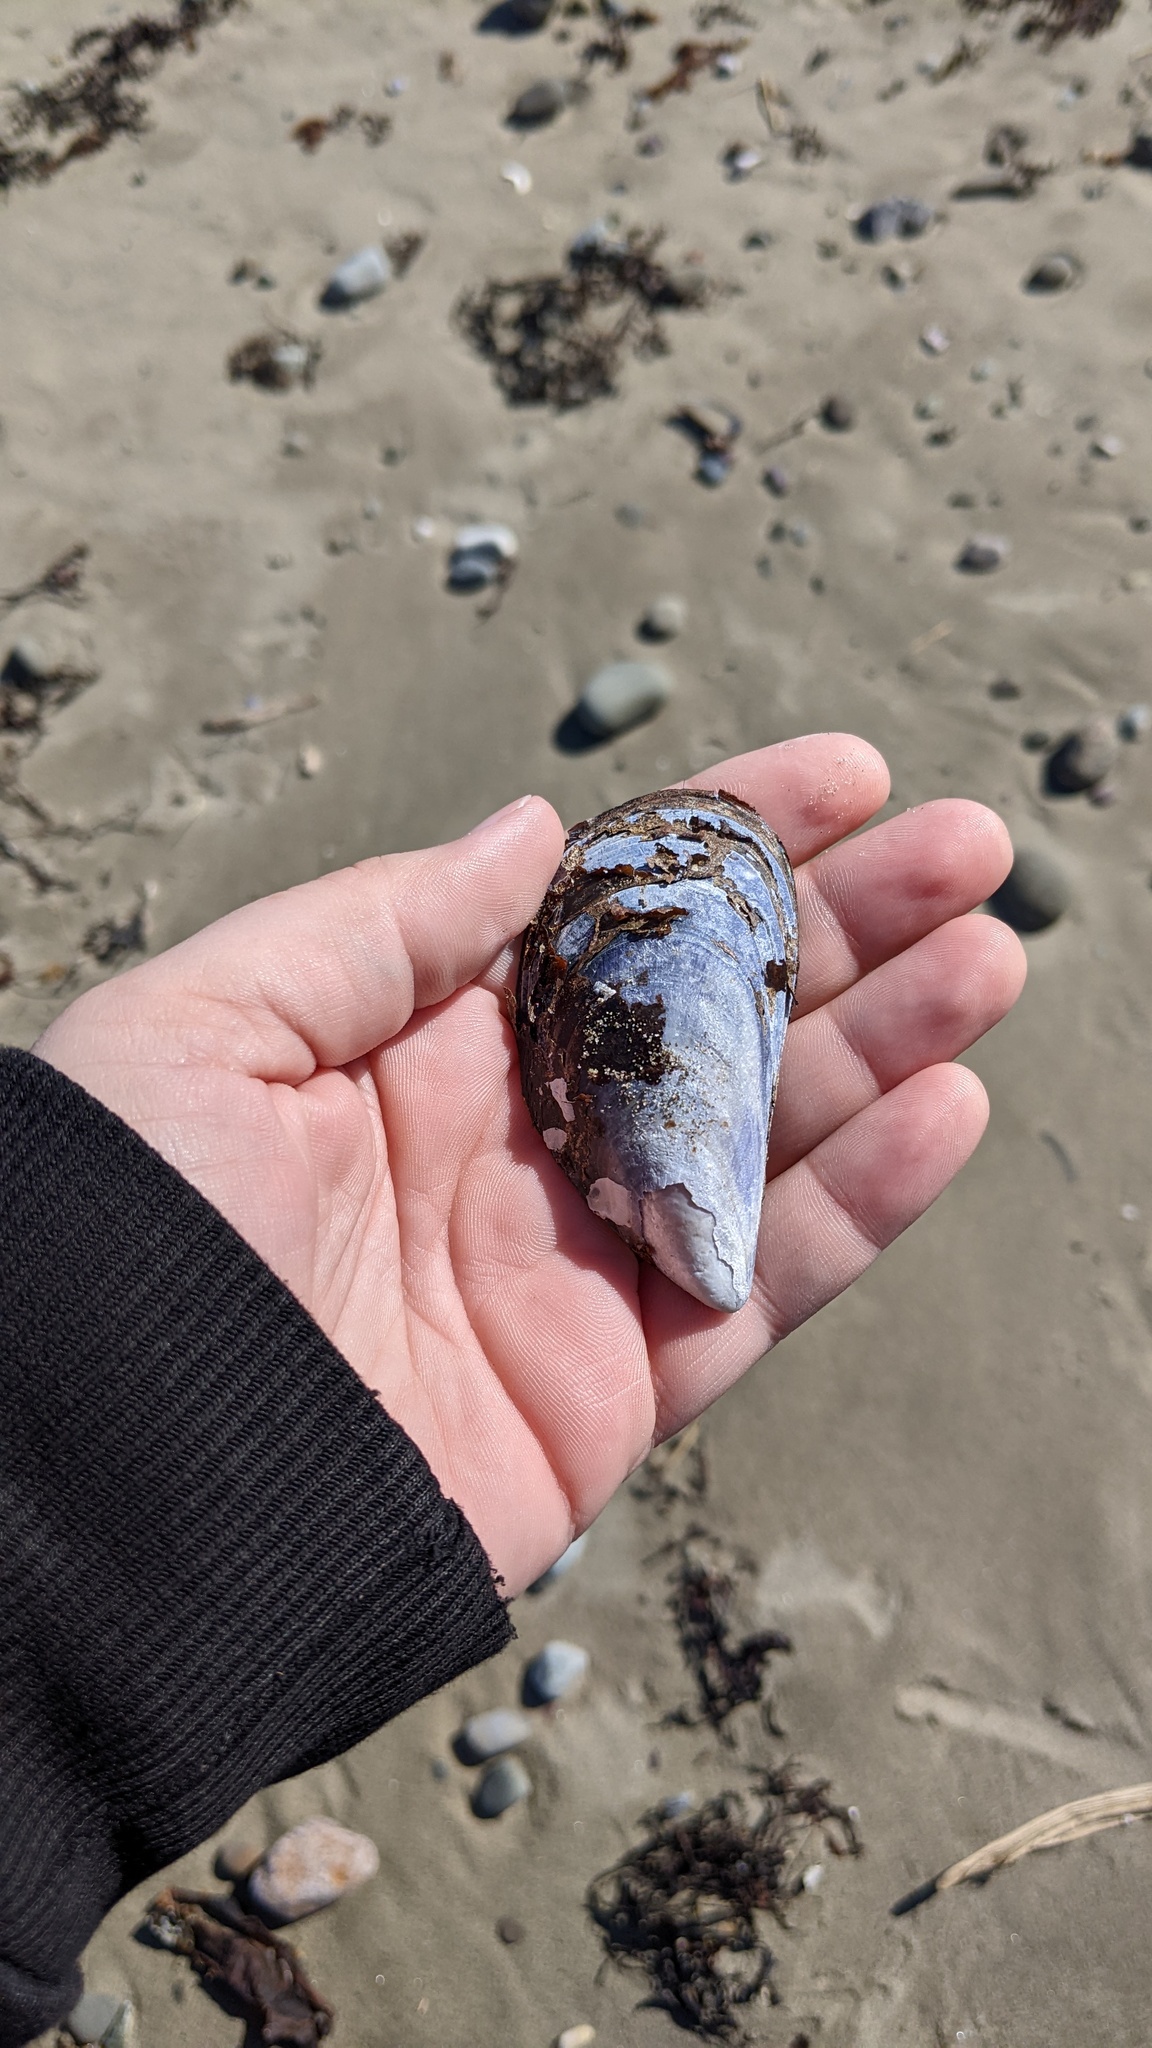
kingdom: Animalia
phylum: Mollusca
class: Bivalvia
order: Mytilida
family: Mytilidae
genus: Mytilus
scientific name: Mytilus
